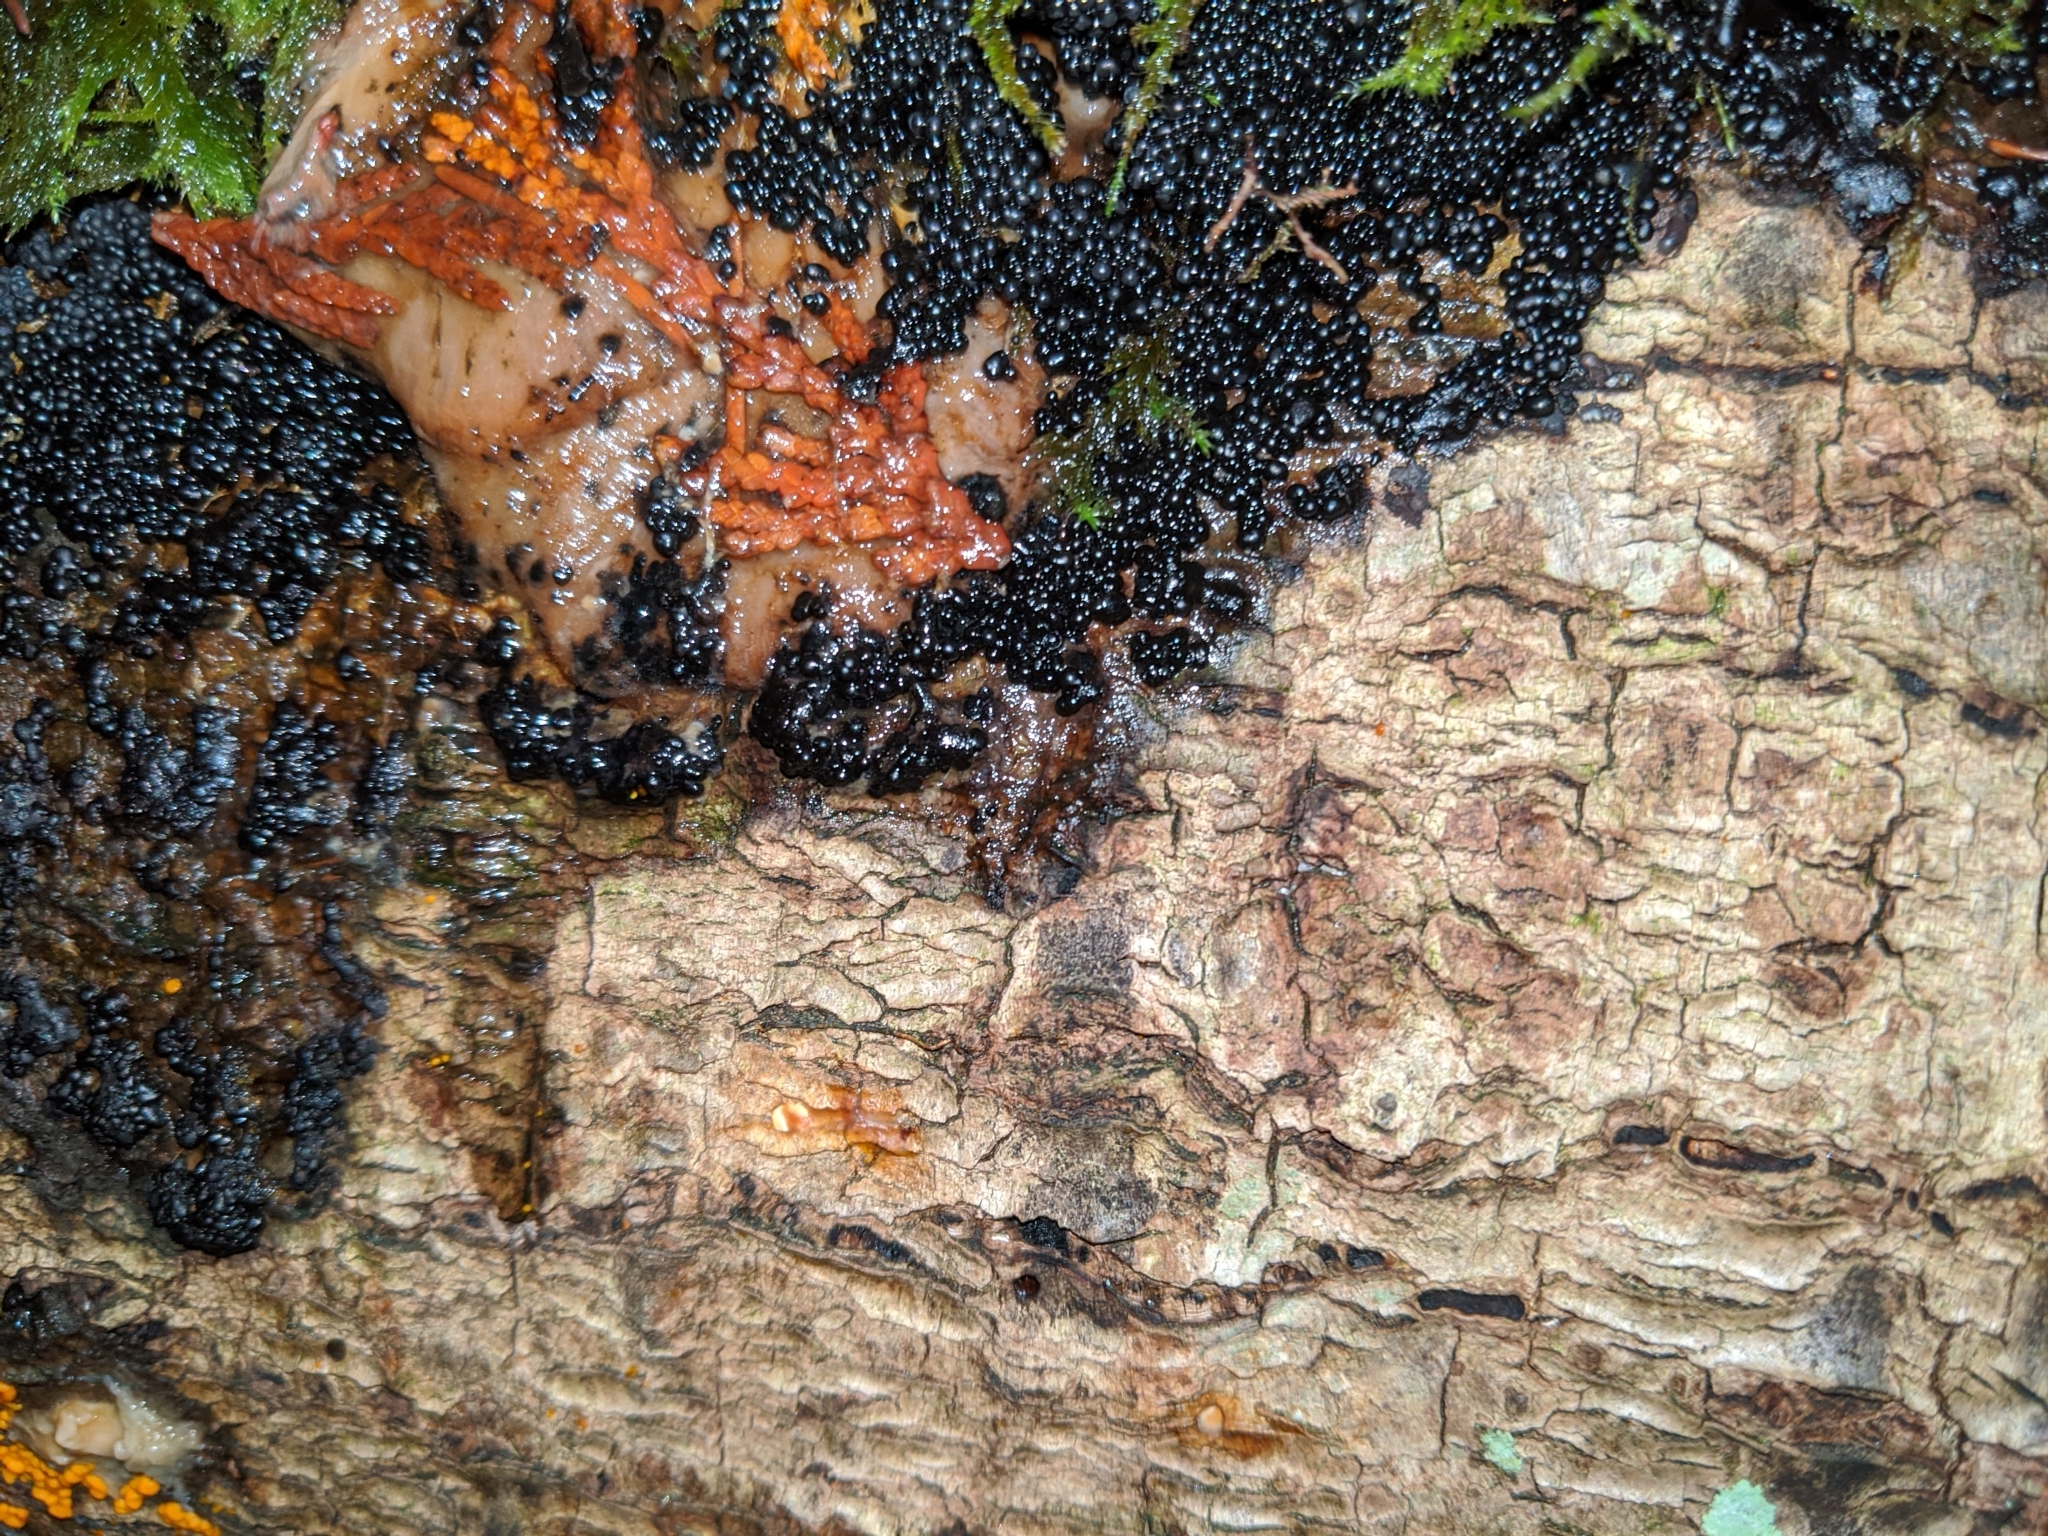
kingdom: Protozoa
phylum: Mycetozoa
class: Myxomycetes
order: Physarales
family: Physaraceae
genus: Badhamia
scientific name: Badhamia utricularis
